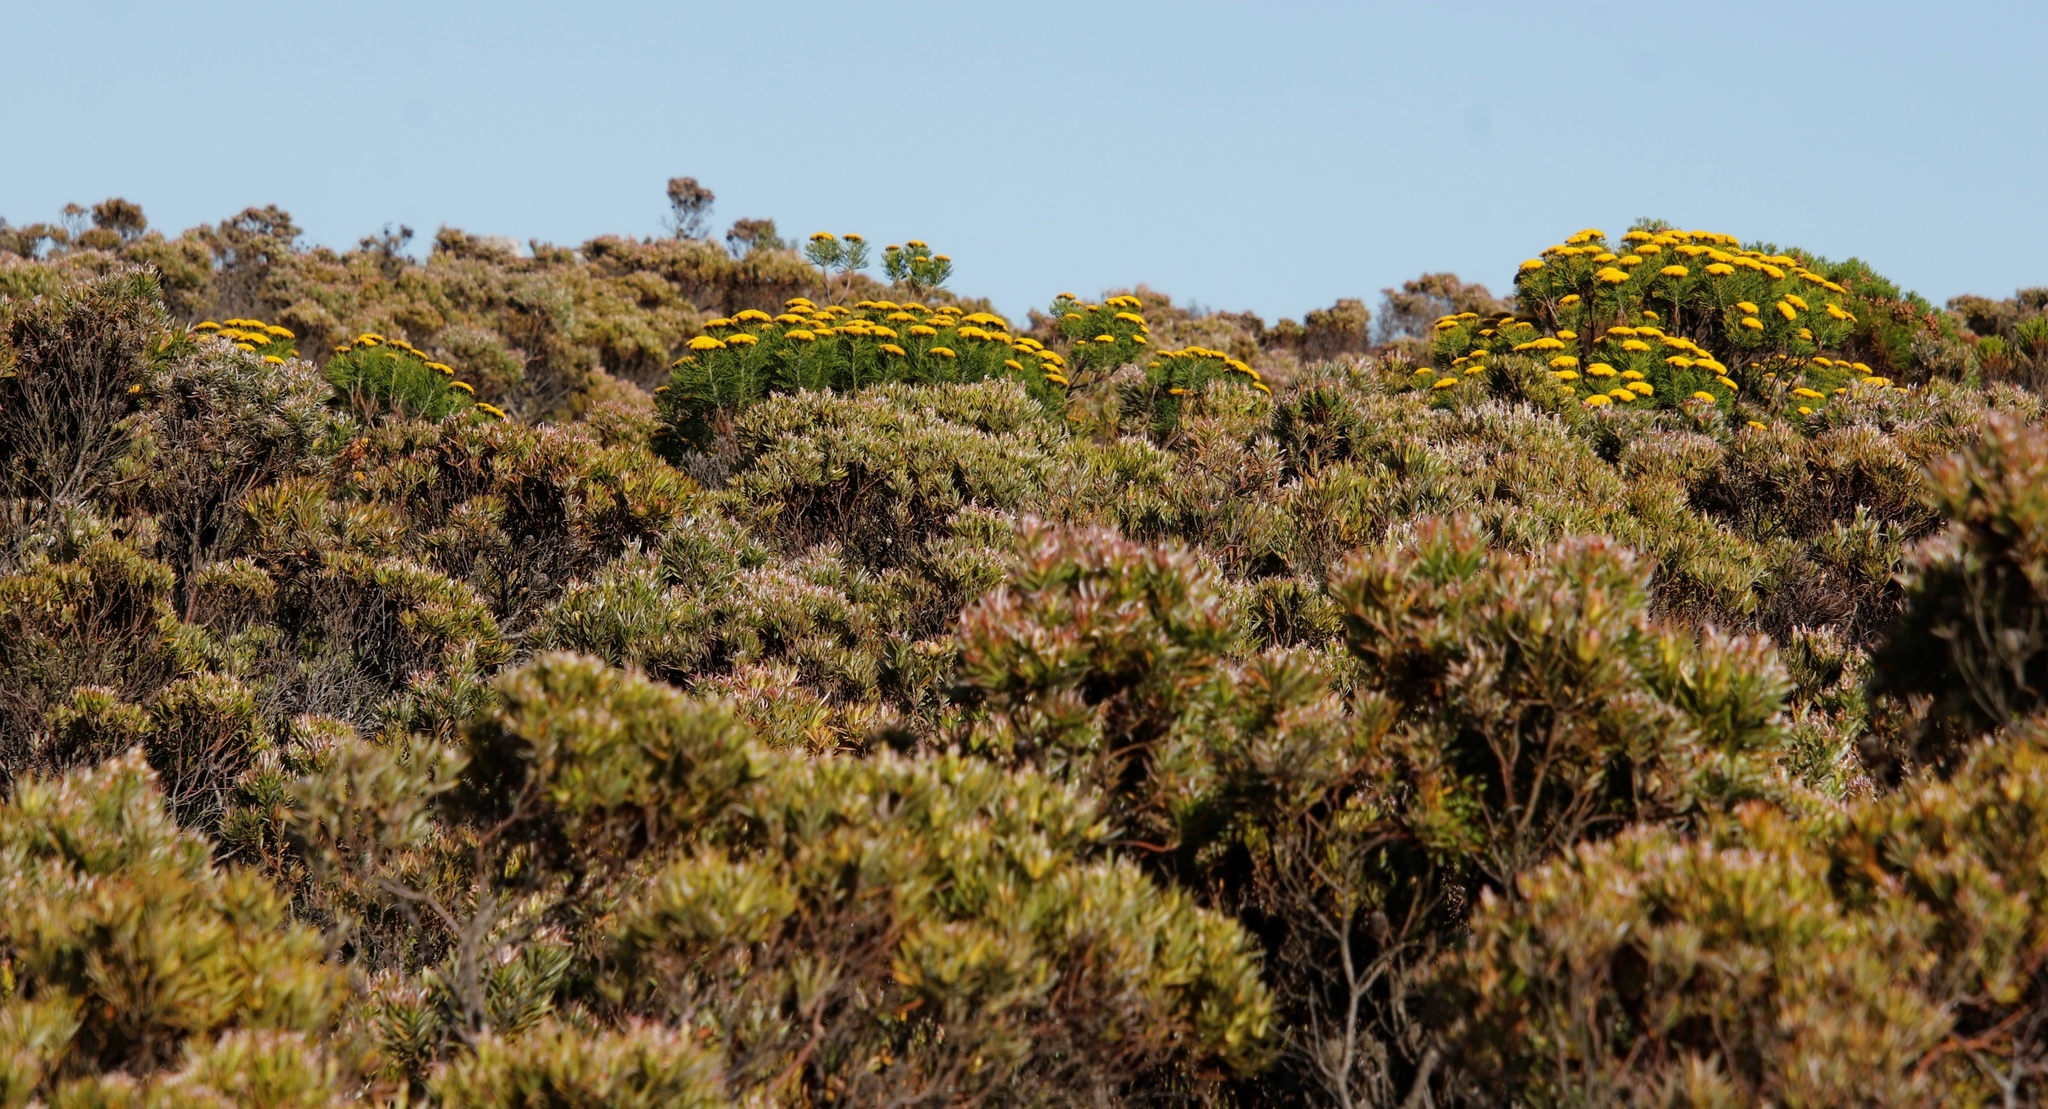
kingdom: Plantae
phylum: Tracheophyta
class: Magnoliopsida
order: Asterales
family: Asteraceae
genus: Hymenolepis
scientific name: Hymenolepis crithmifolia
